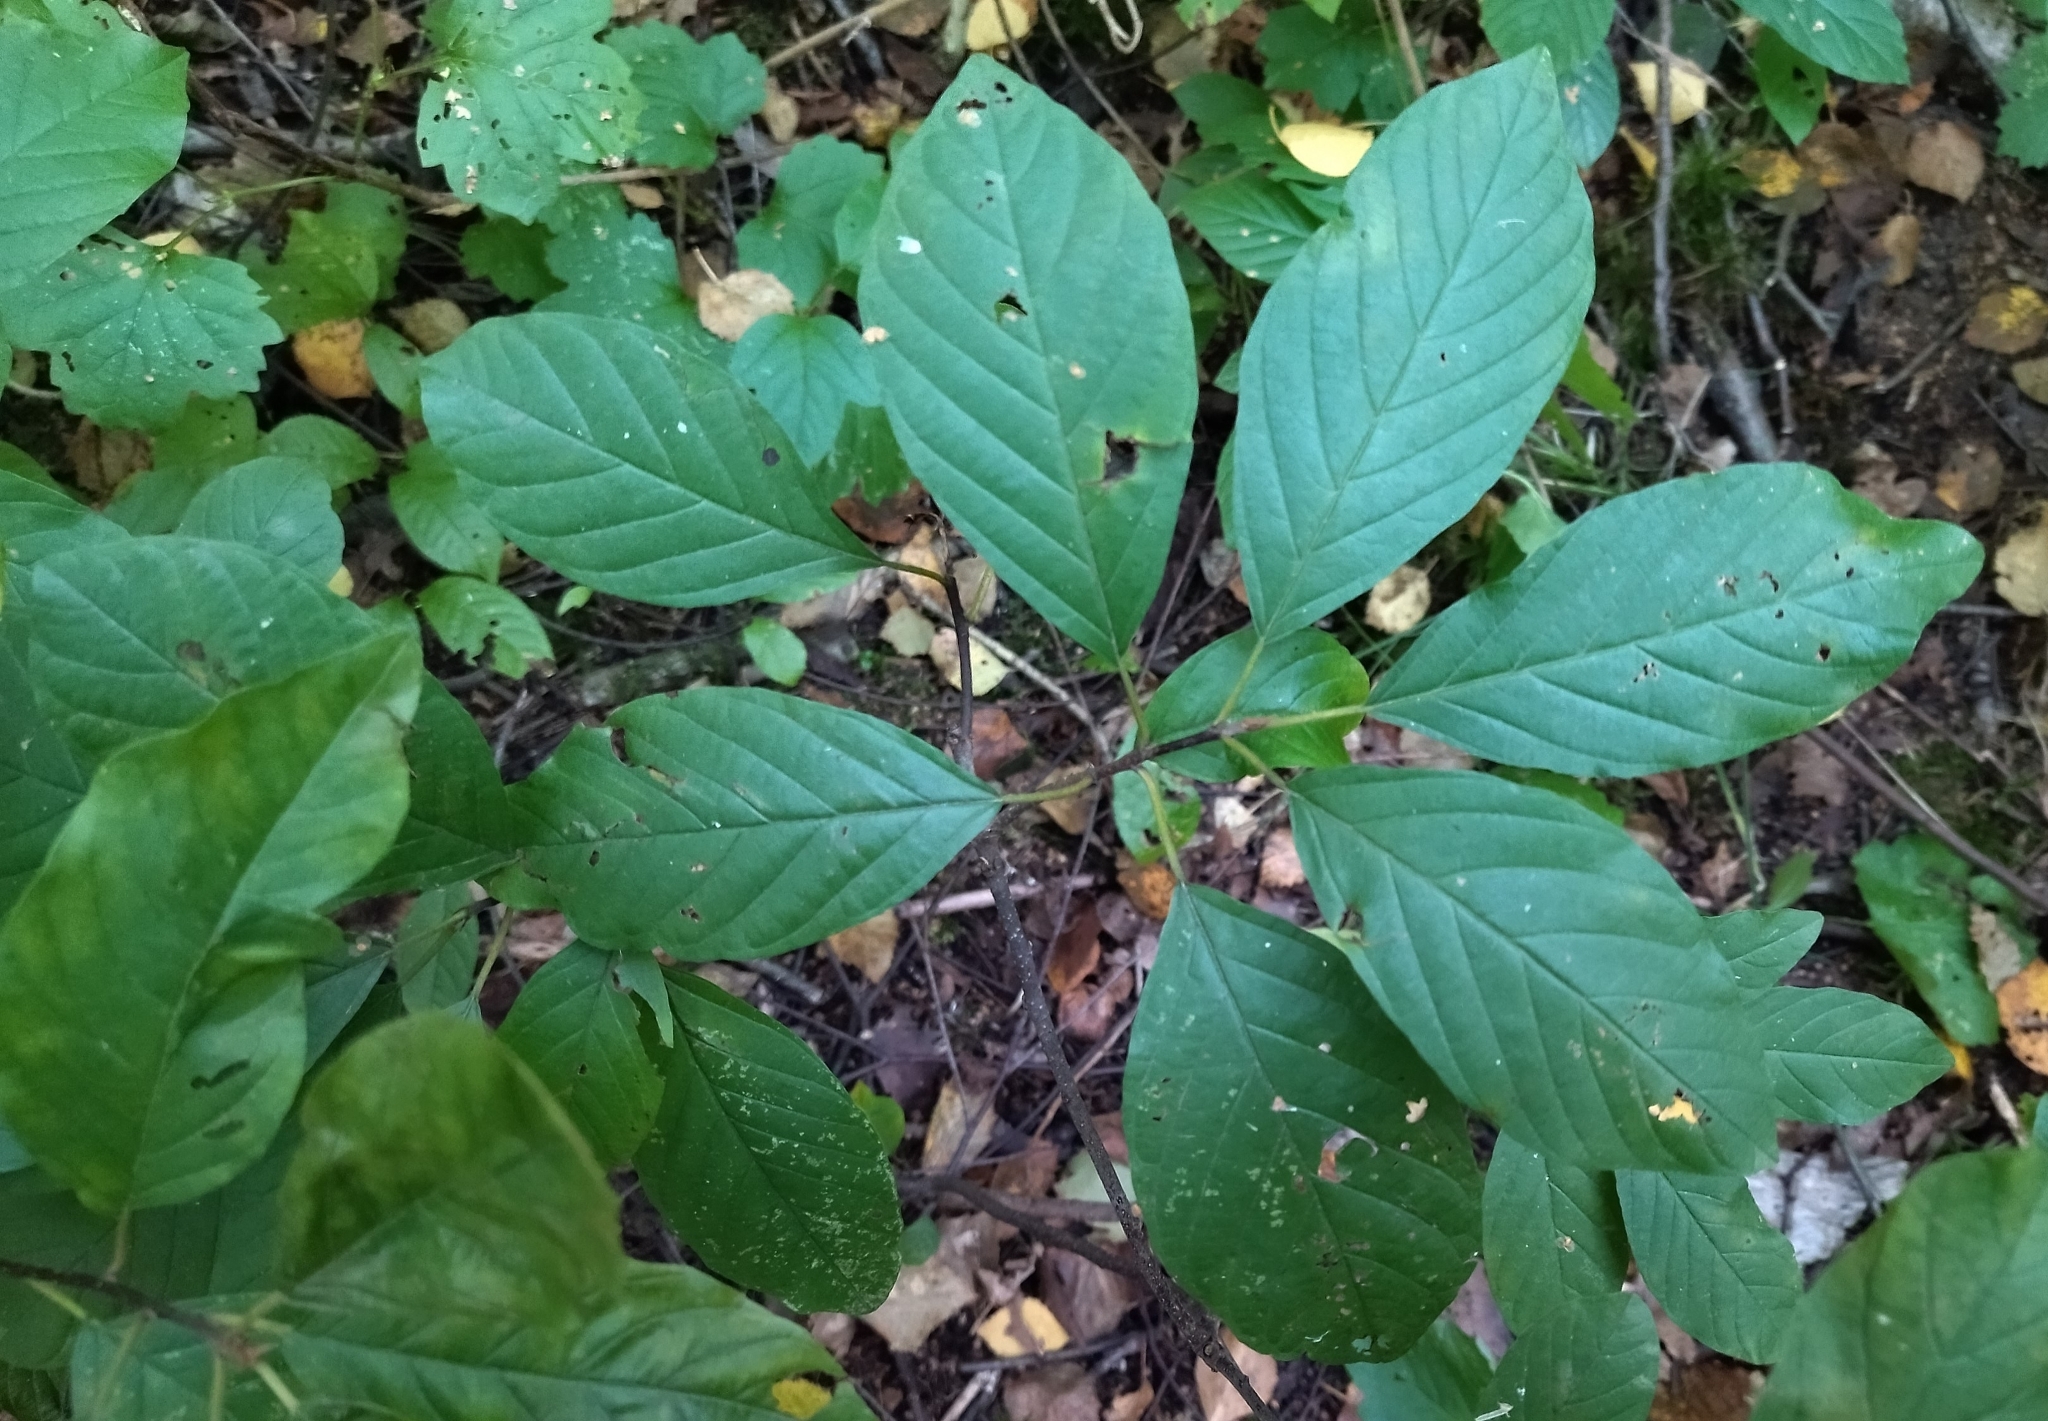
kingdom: Plantae
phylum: Tracheophyta
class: Magnoliopsida
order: Rosales
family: Rhamnaceae
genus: Frangula
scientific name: Frangula alnus
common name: Alder buckthorn
